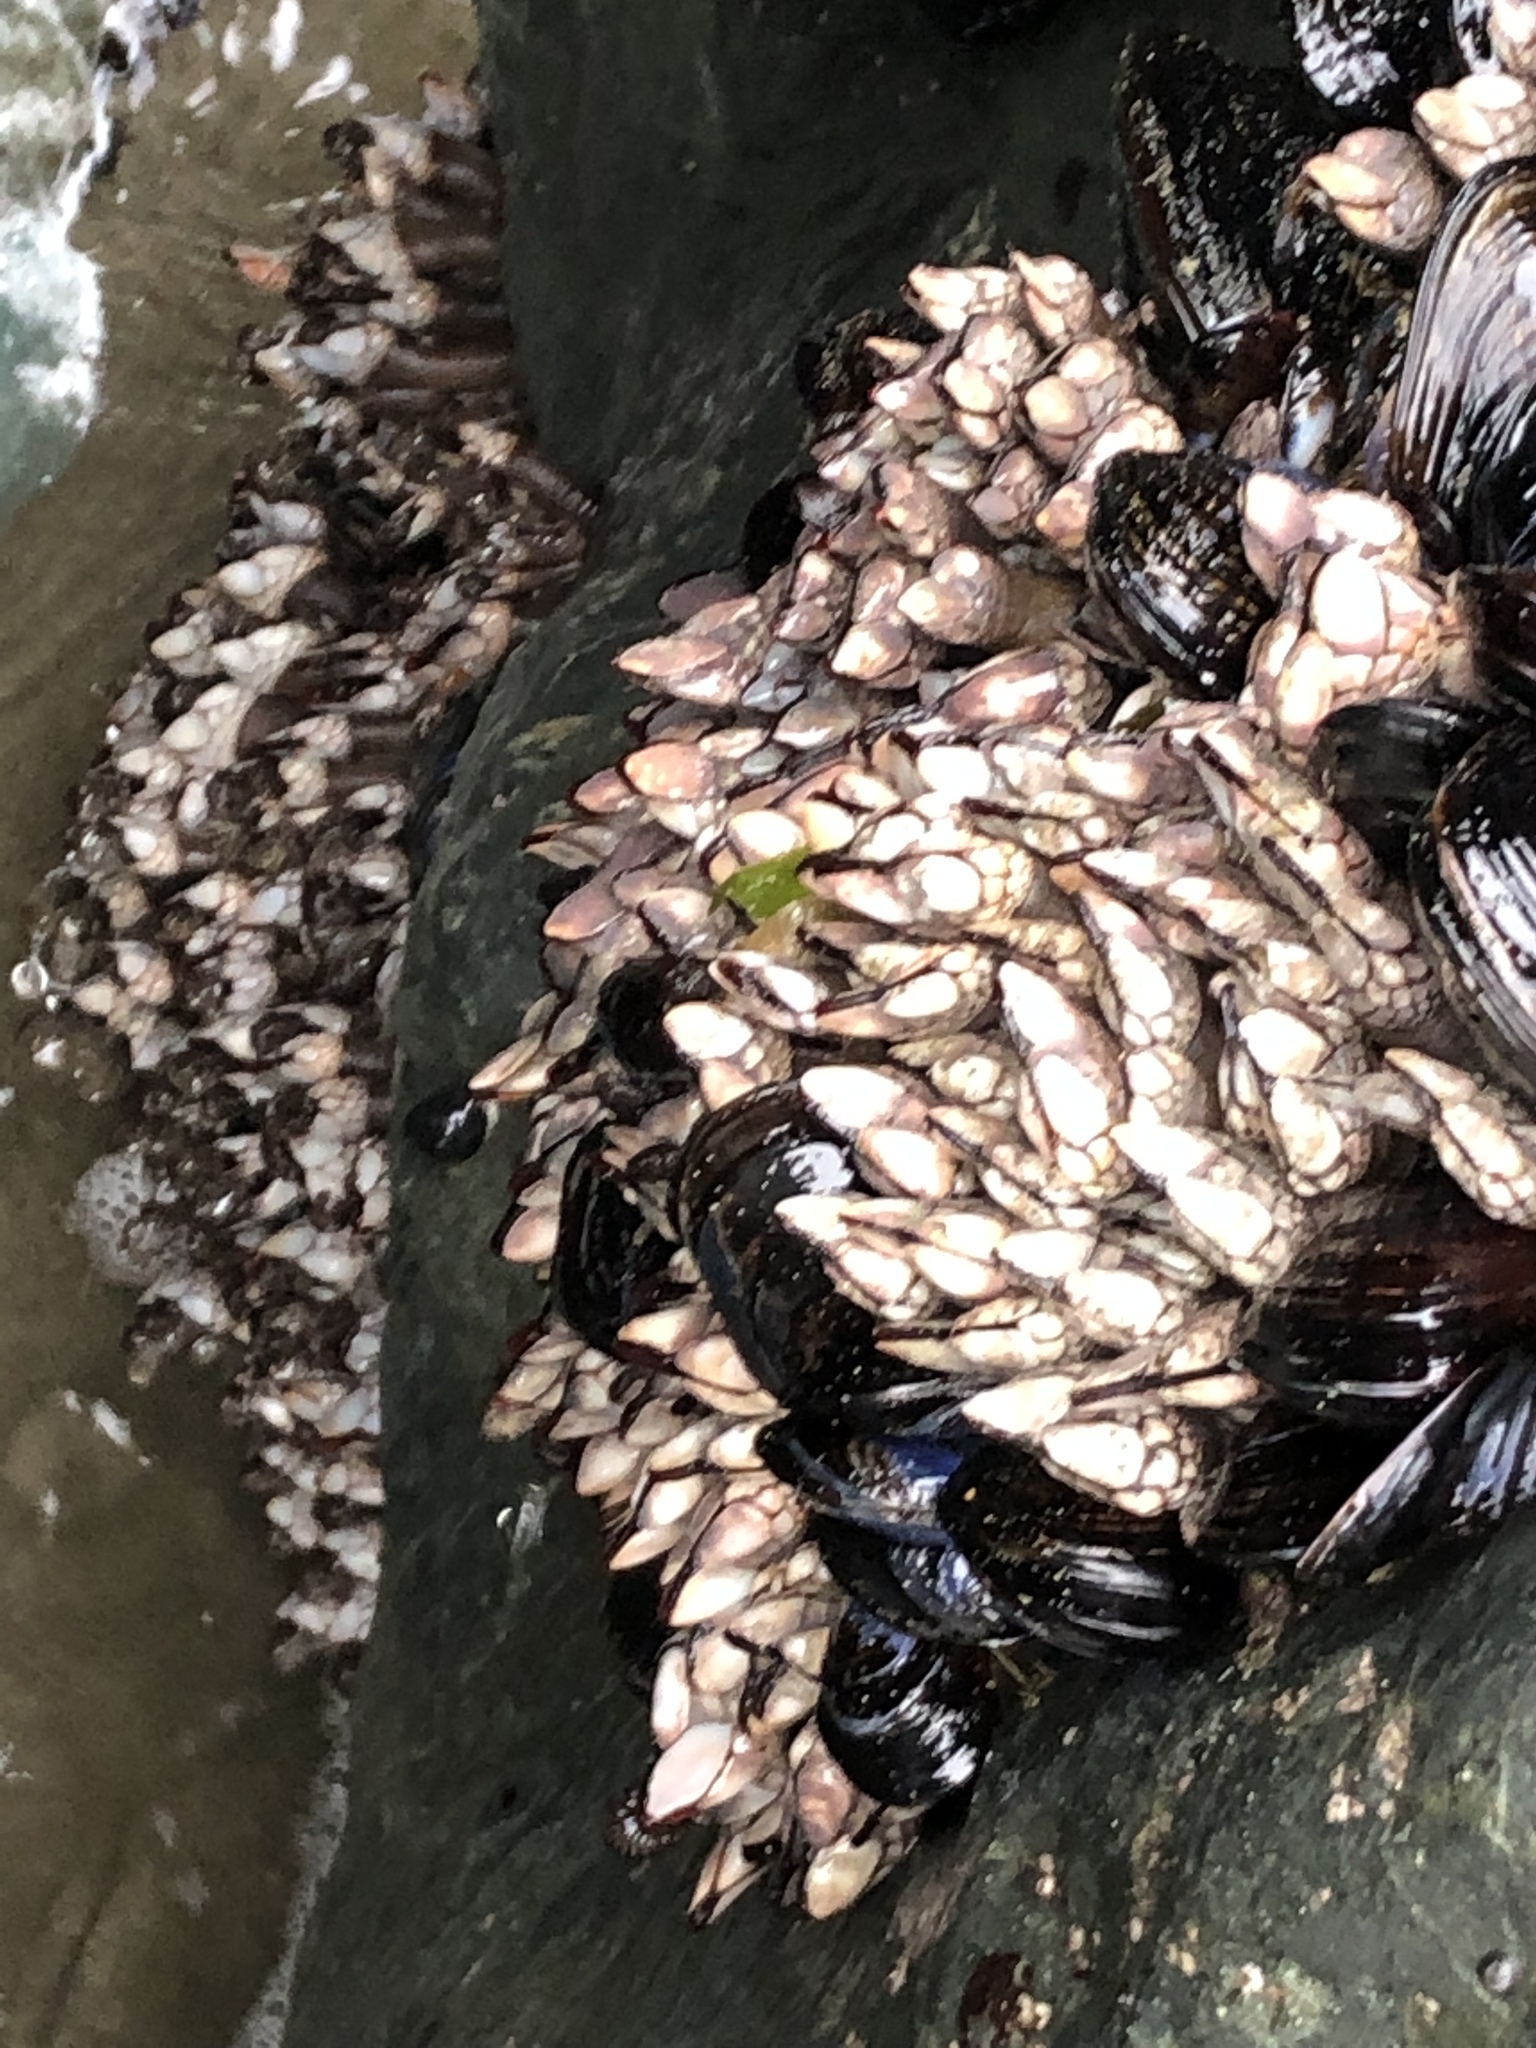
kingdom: Animalia
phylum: Arthropoda
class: Maxillopoda
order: Pedunculata
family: Pollicipedidae
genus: Pollicipes
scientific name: Pollicipes polymerus
